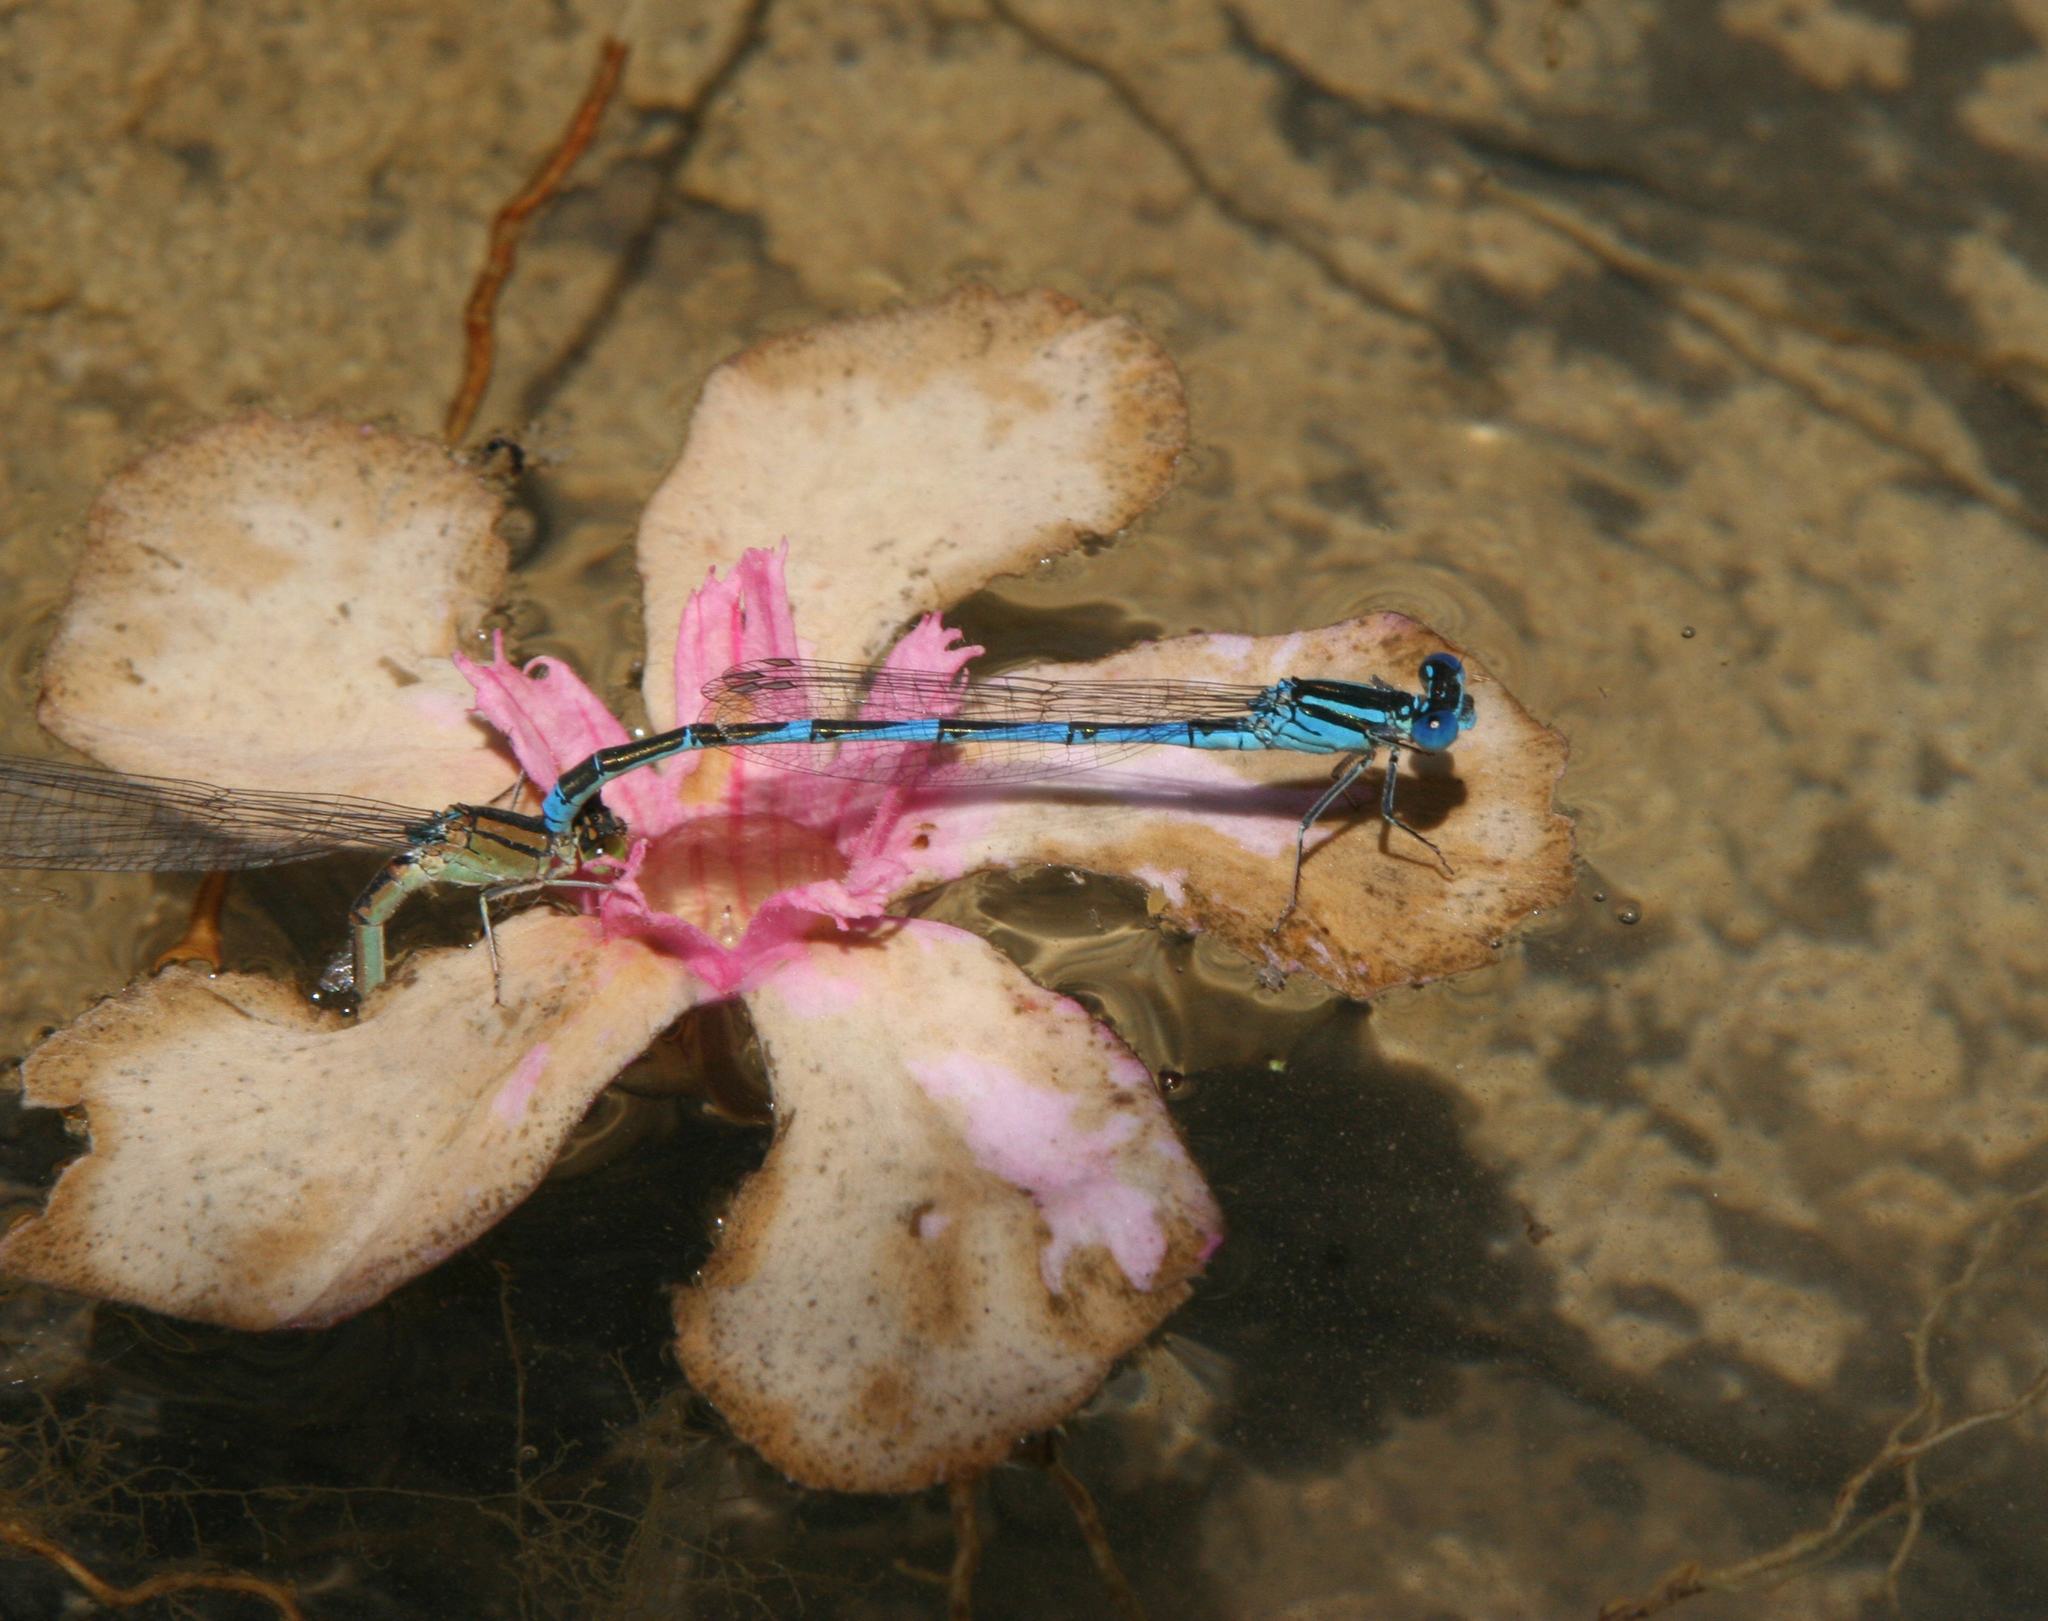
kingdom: Animalia
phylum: Arthropoda
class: Insecta
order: Odonata
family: Coenagrionidae
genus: Erythromma
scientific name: Erythromma lindenii
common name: Blue-eye
